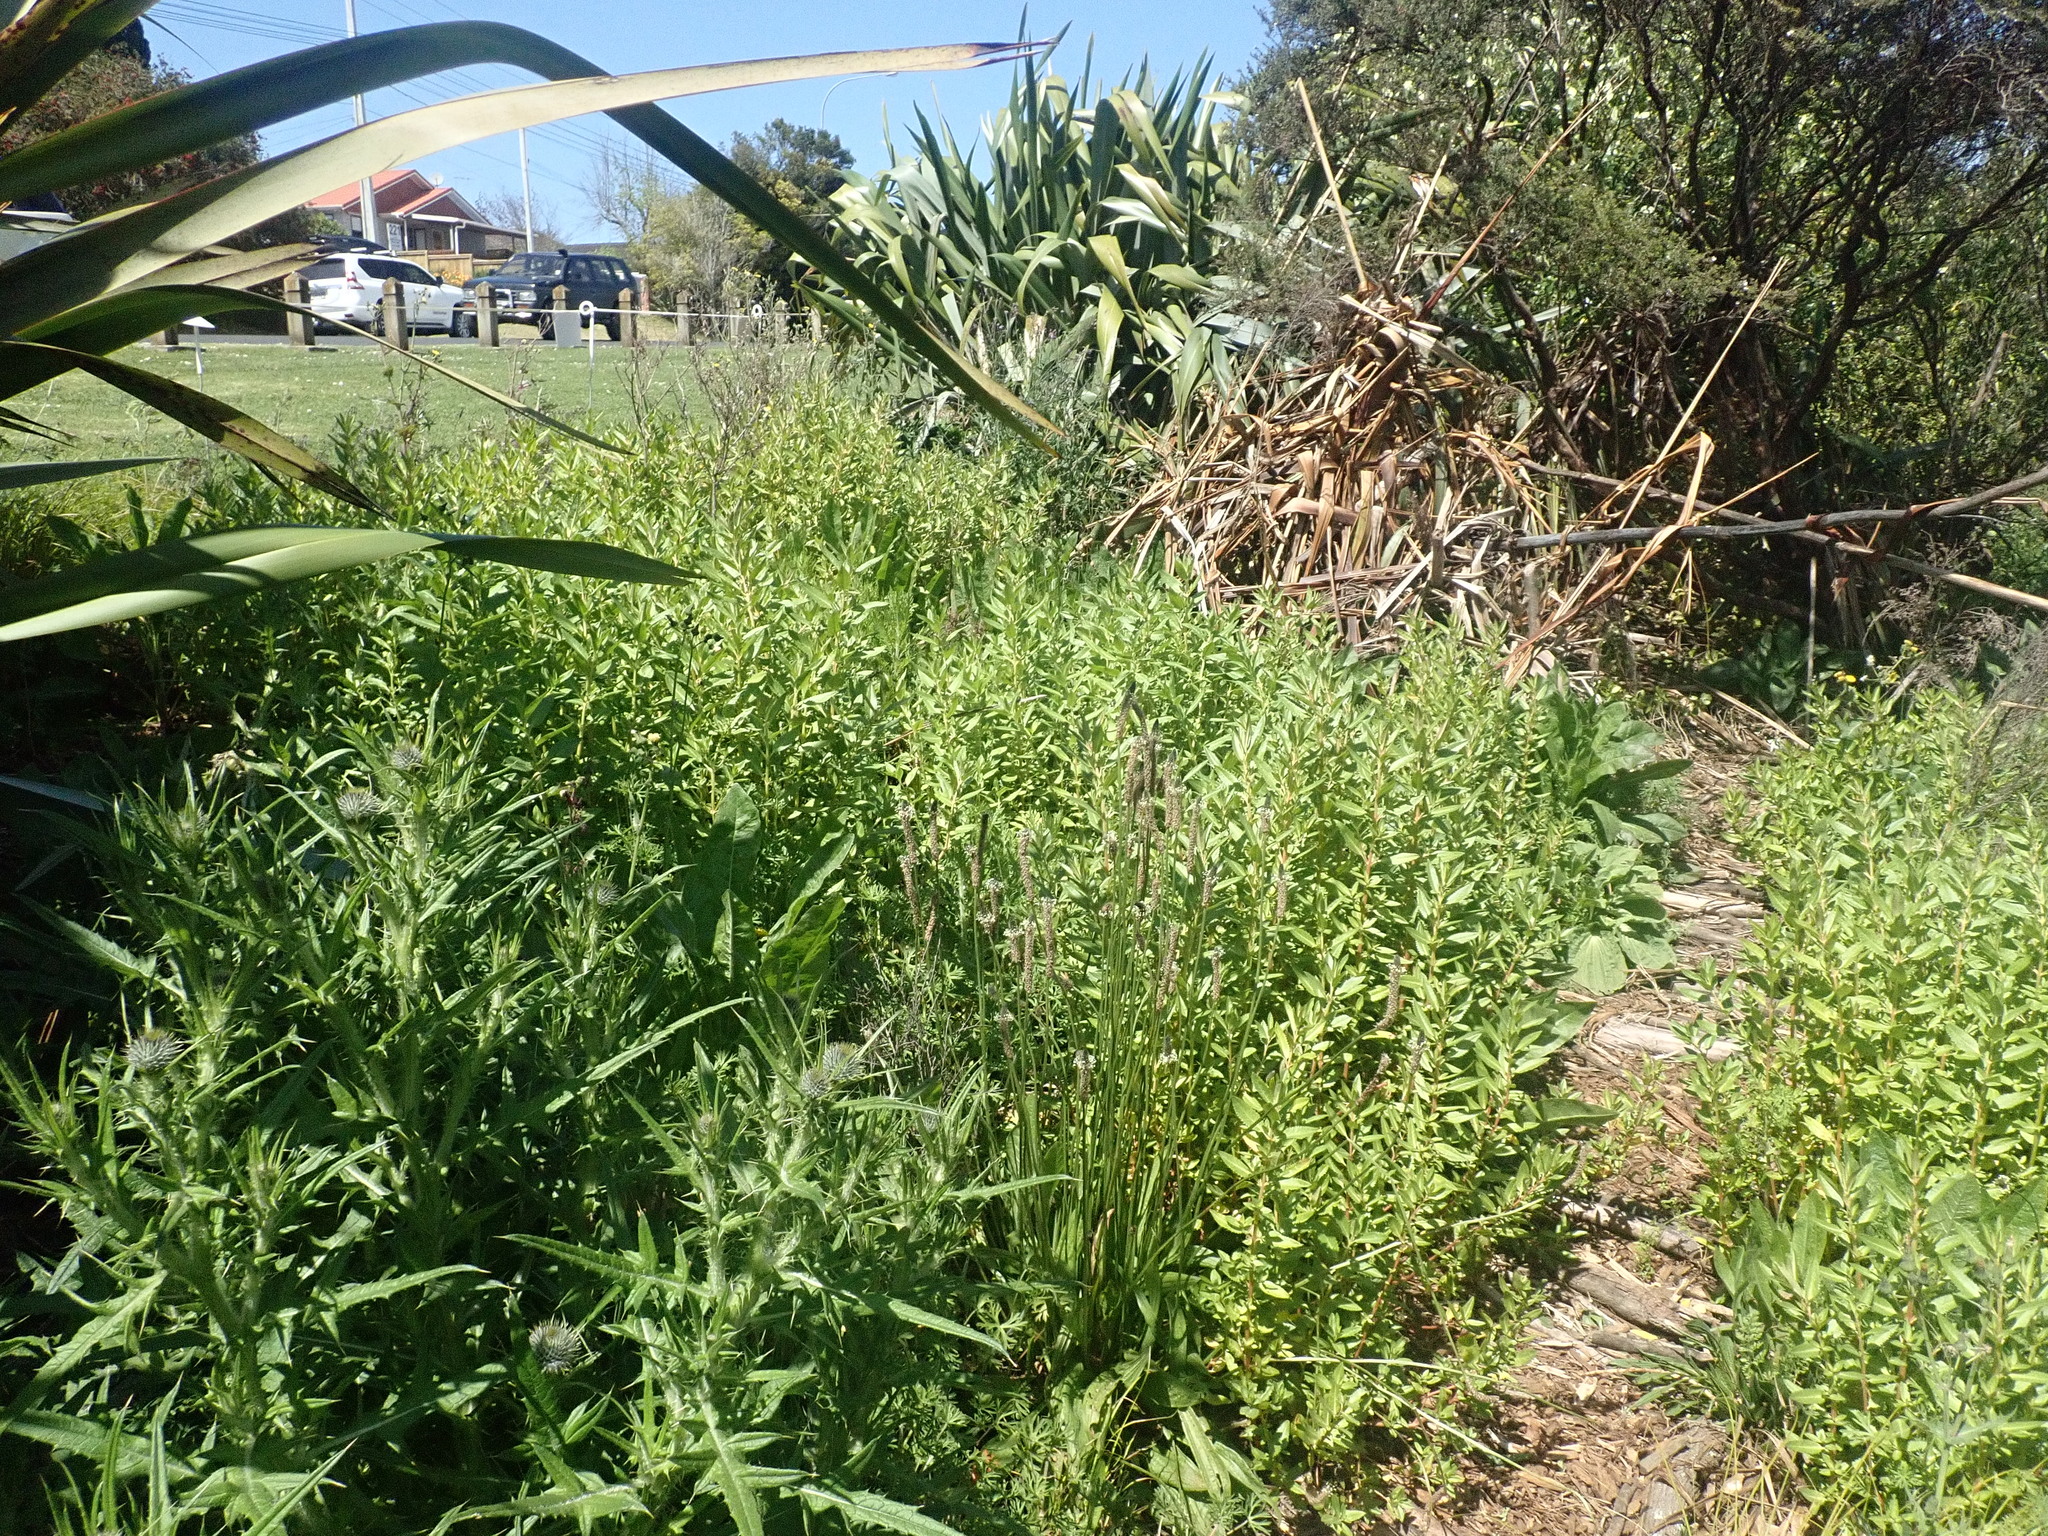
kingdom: Plantae
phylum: Tracheophyta
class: Magnoliopsida
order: Asterales
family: Asteraceae
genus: Cirsium
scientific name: Cirsium vulgare
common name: Bull thistle
